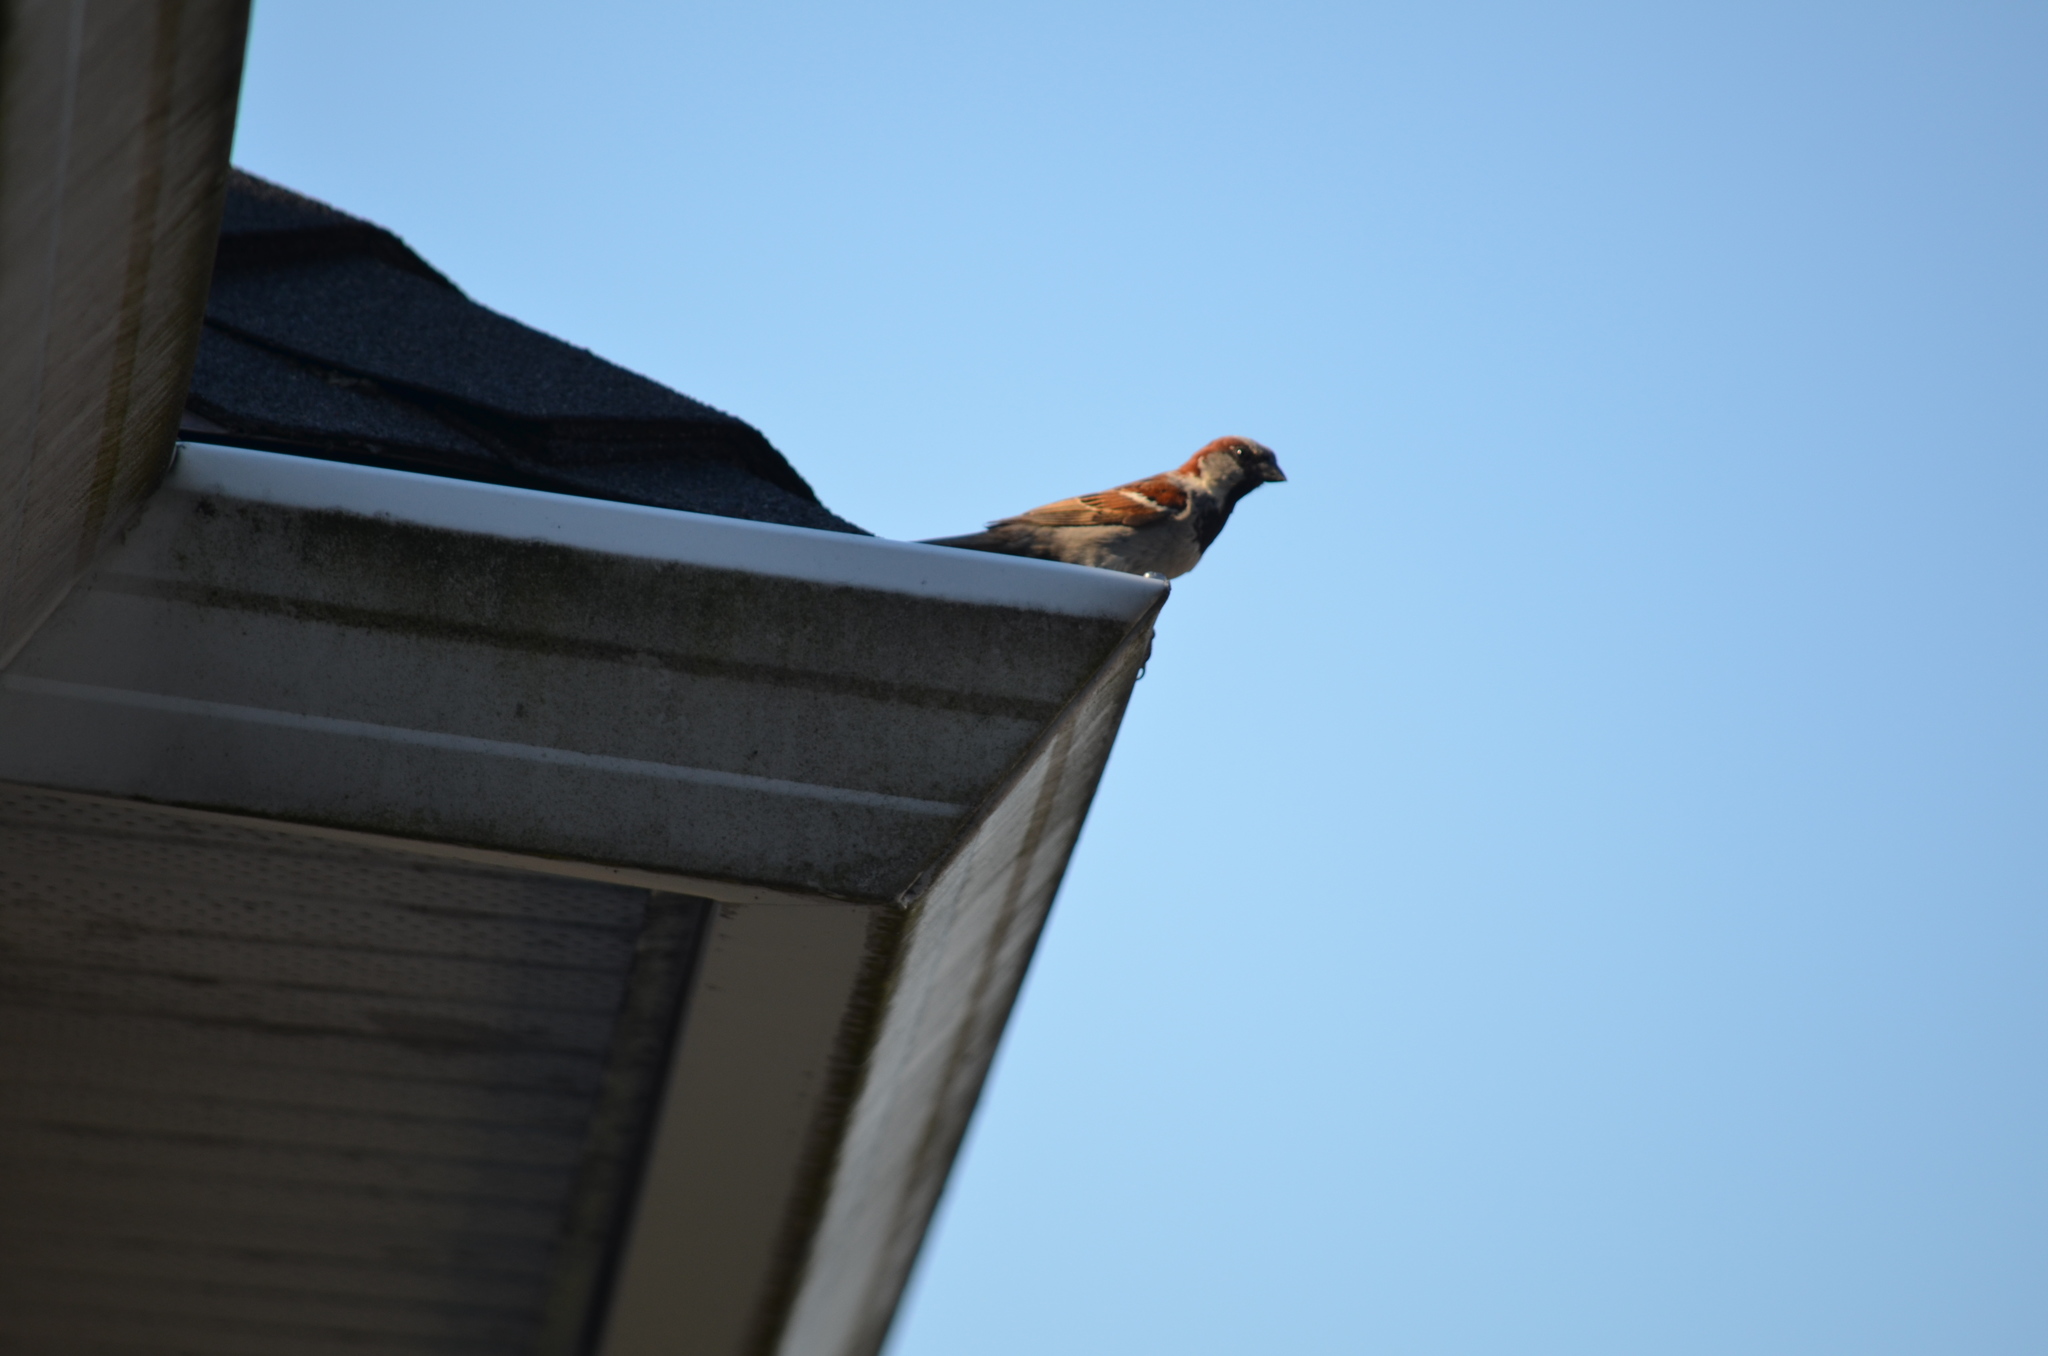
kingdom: Animalia
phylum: Chordata
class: Aves
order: Passeriformes
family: Passeridae
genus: Passer
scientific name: Passer domesticus
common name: House sparrow
